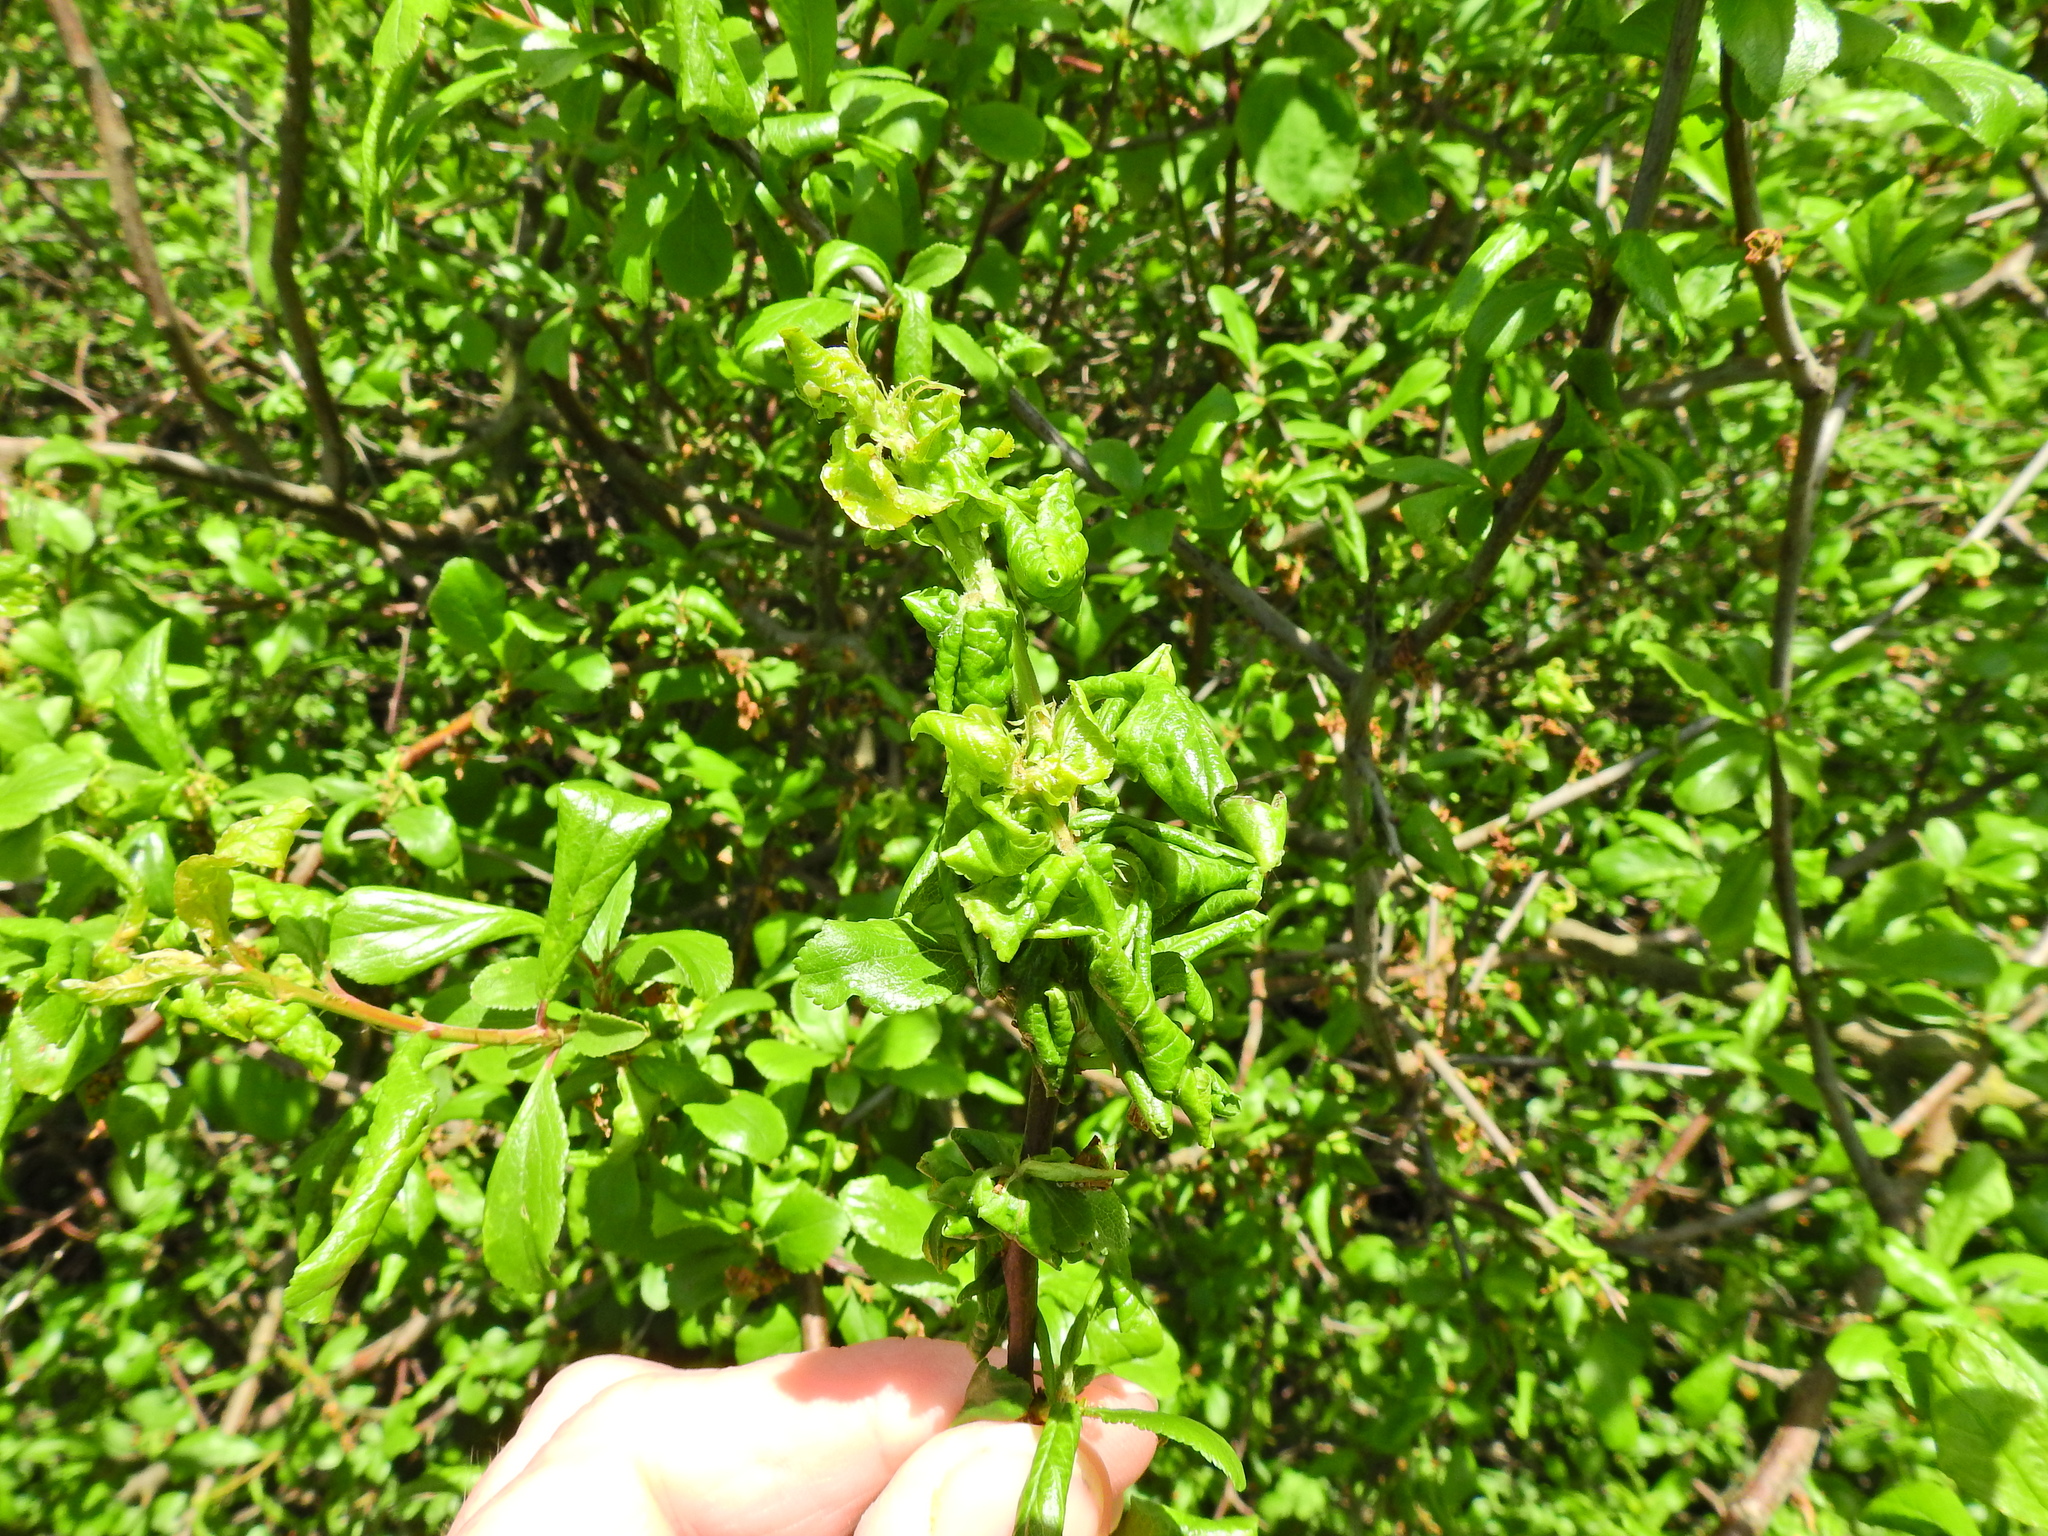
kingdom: Animalia
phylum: Arthropoda
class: Insecta
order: Hemiptera
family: Aphididae
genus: Hyalopterus
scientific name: Hyalopterus pruni
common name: Mealy plum aphid
